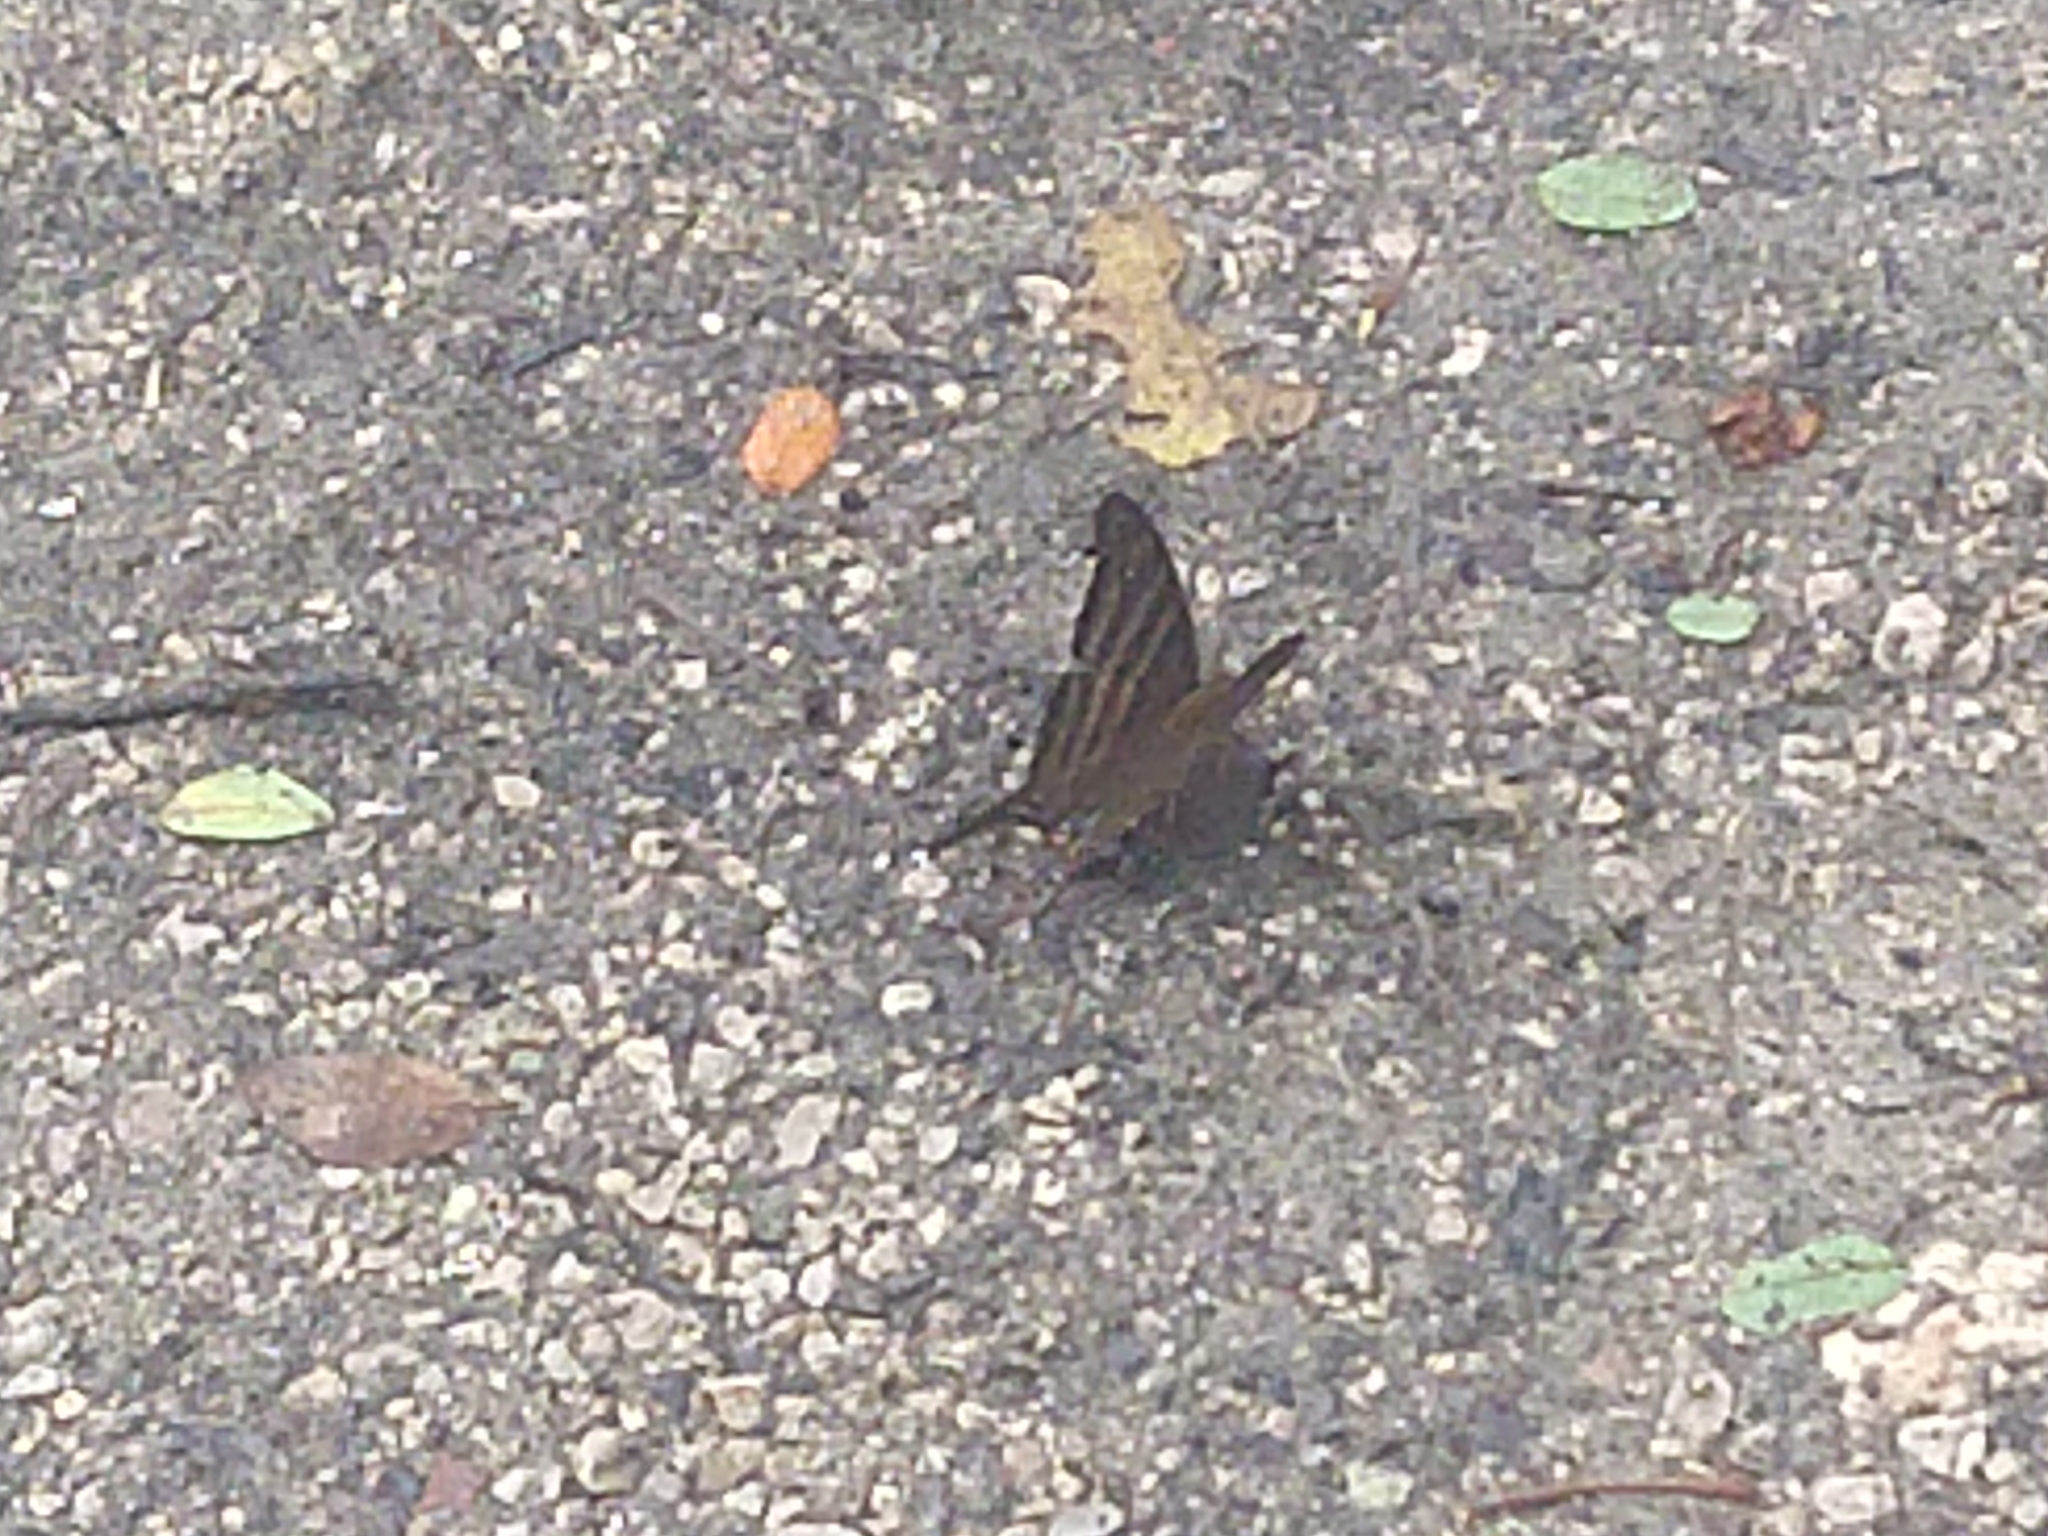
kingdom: Animalia
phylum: Arthropoda
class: Insecta
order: Lepidoptera
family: Nymphalidae
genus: Marpesia
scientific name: Marpesia chiron
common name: Many-banded daggerwing
